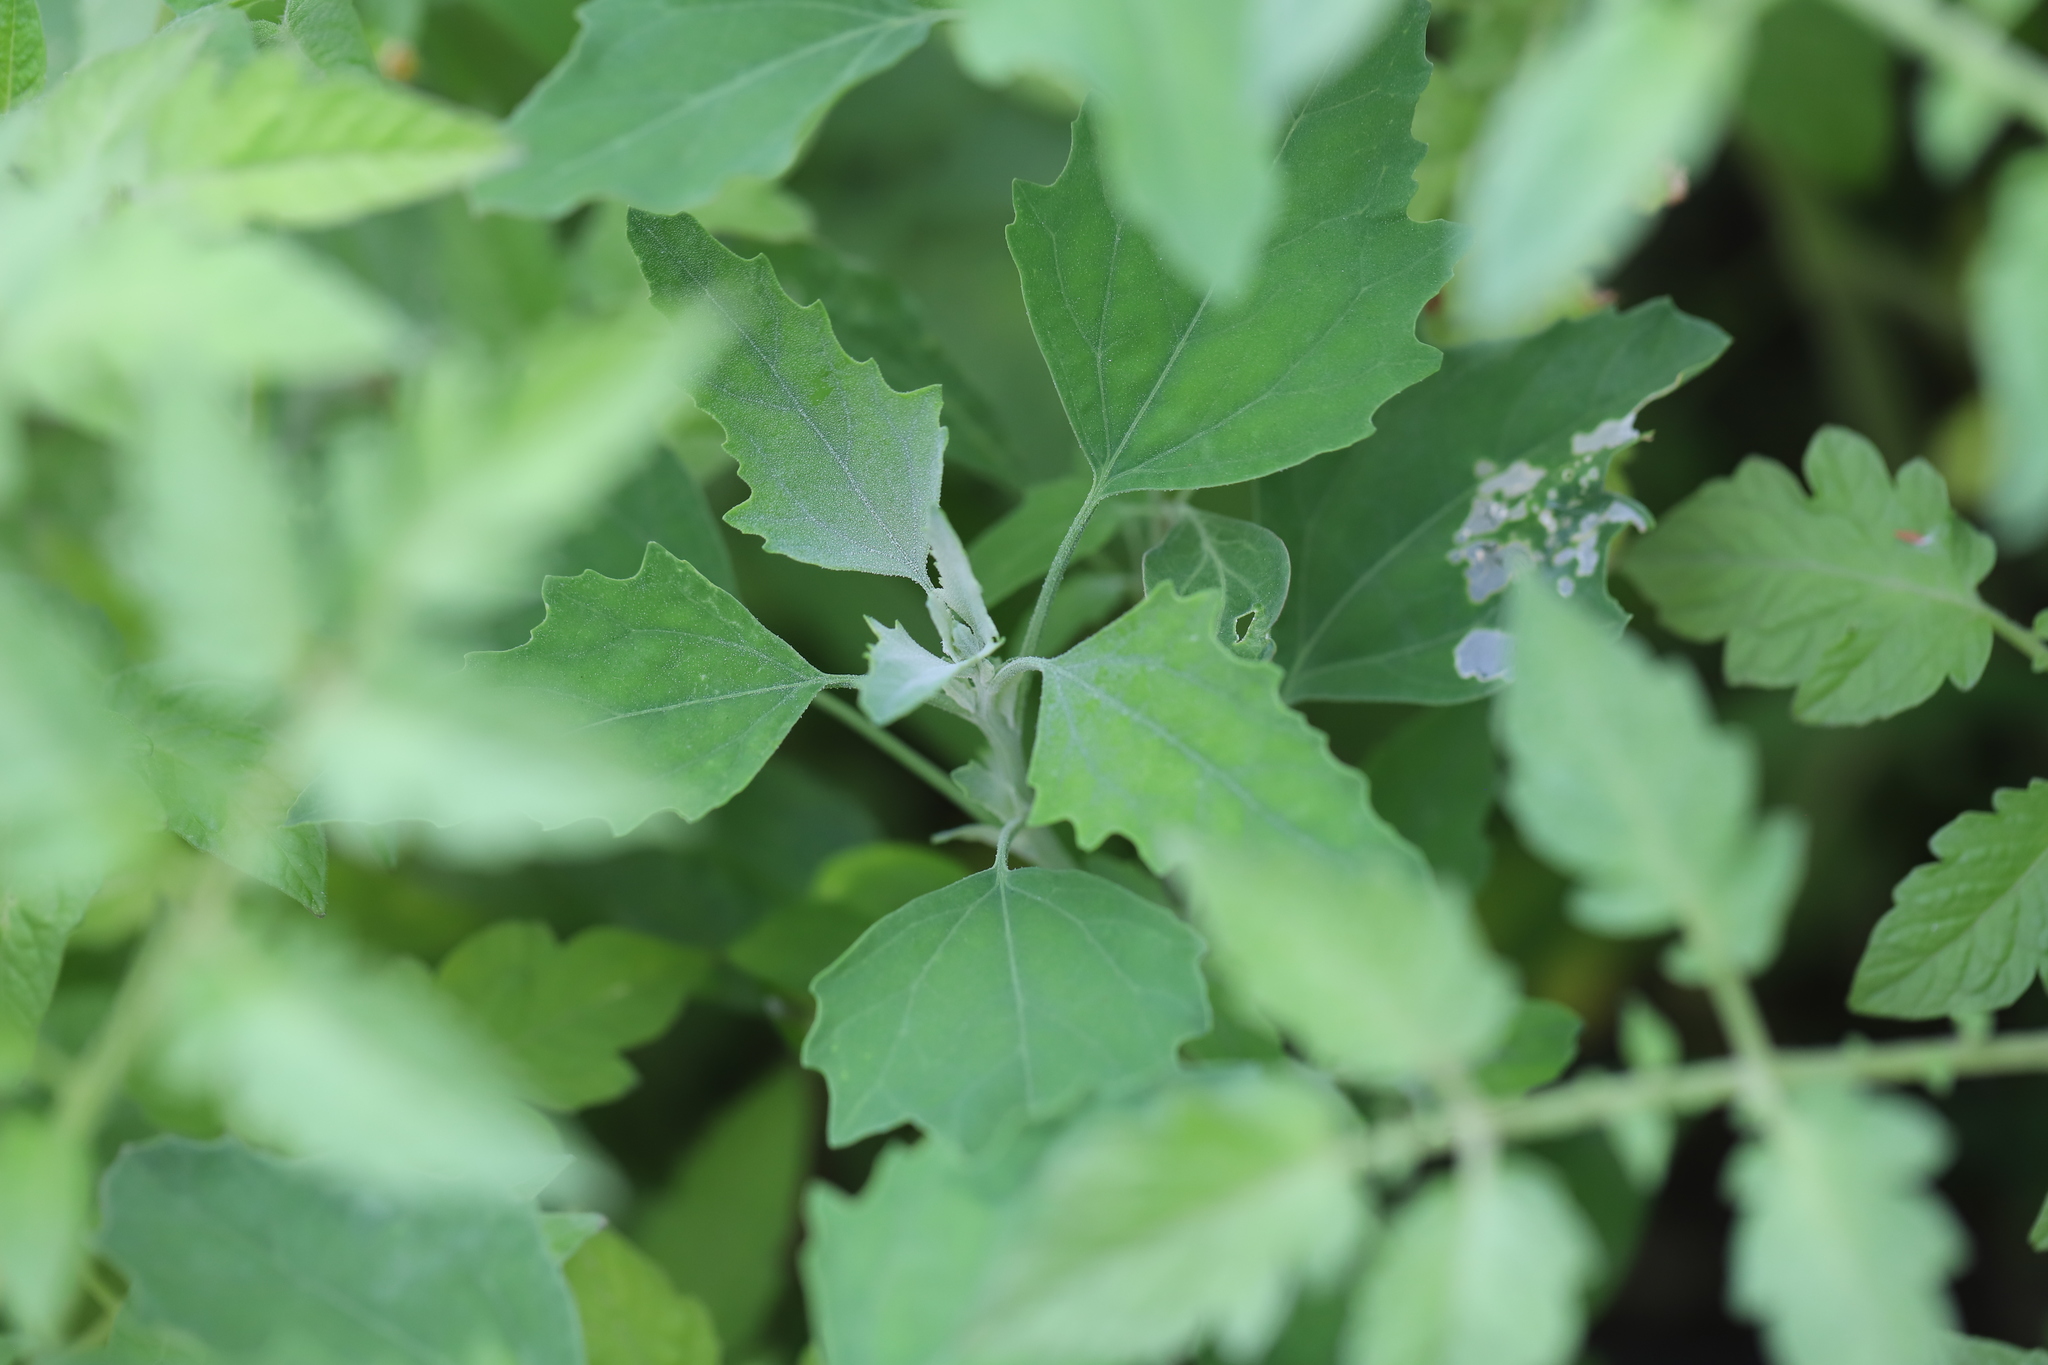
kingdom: Plantae
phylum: Tracheophyta
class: Magnoliopsida
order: Caryophyllales
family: Amaranthaceae
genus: Chenopodium
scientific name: Chenopodium album
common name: Fat-hen
